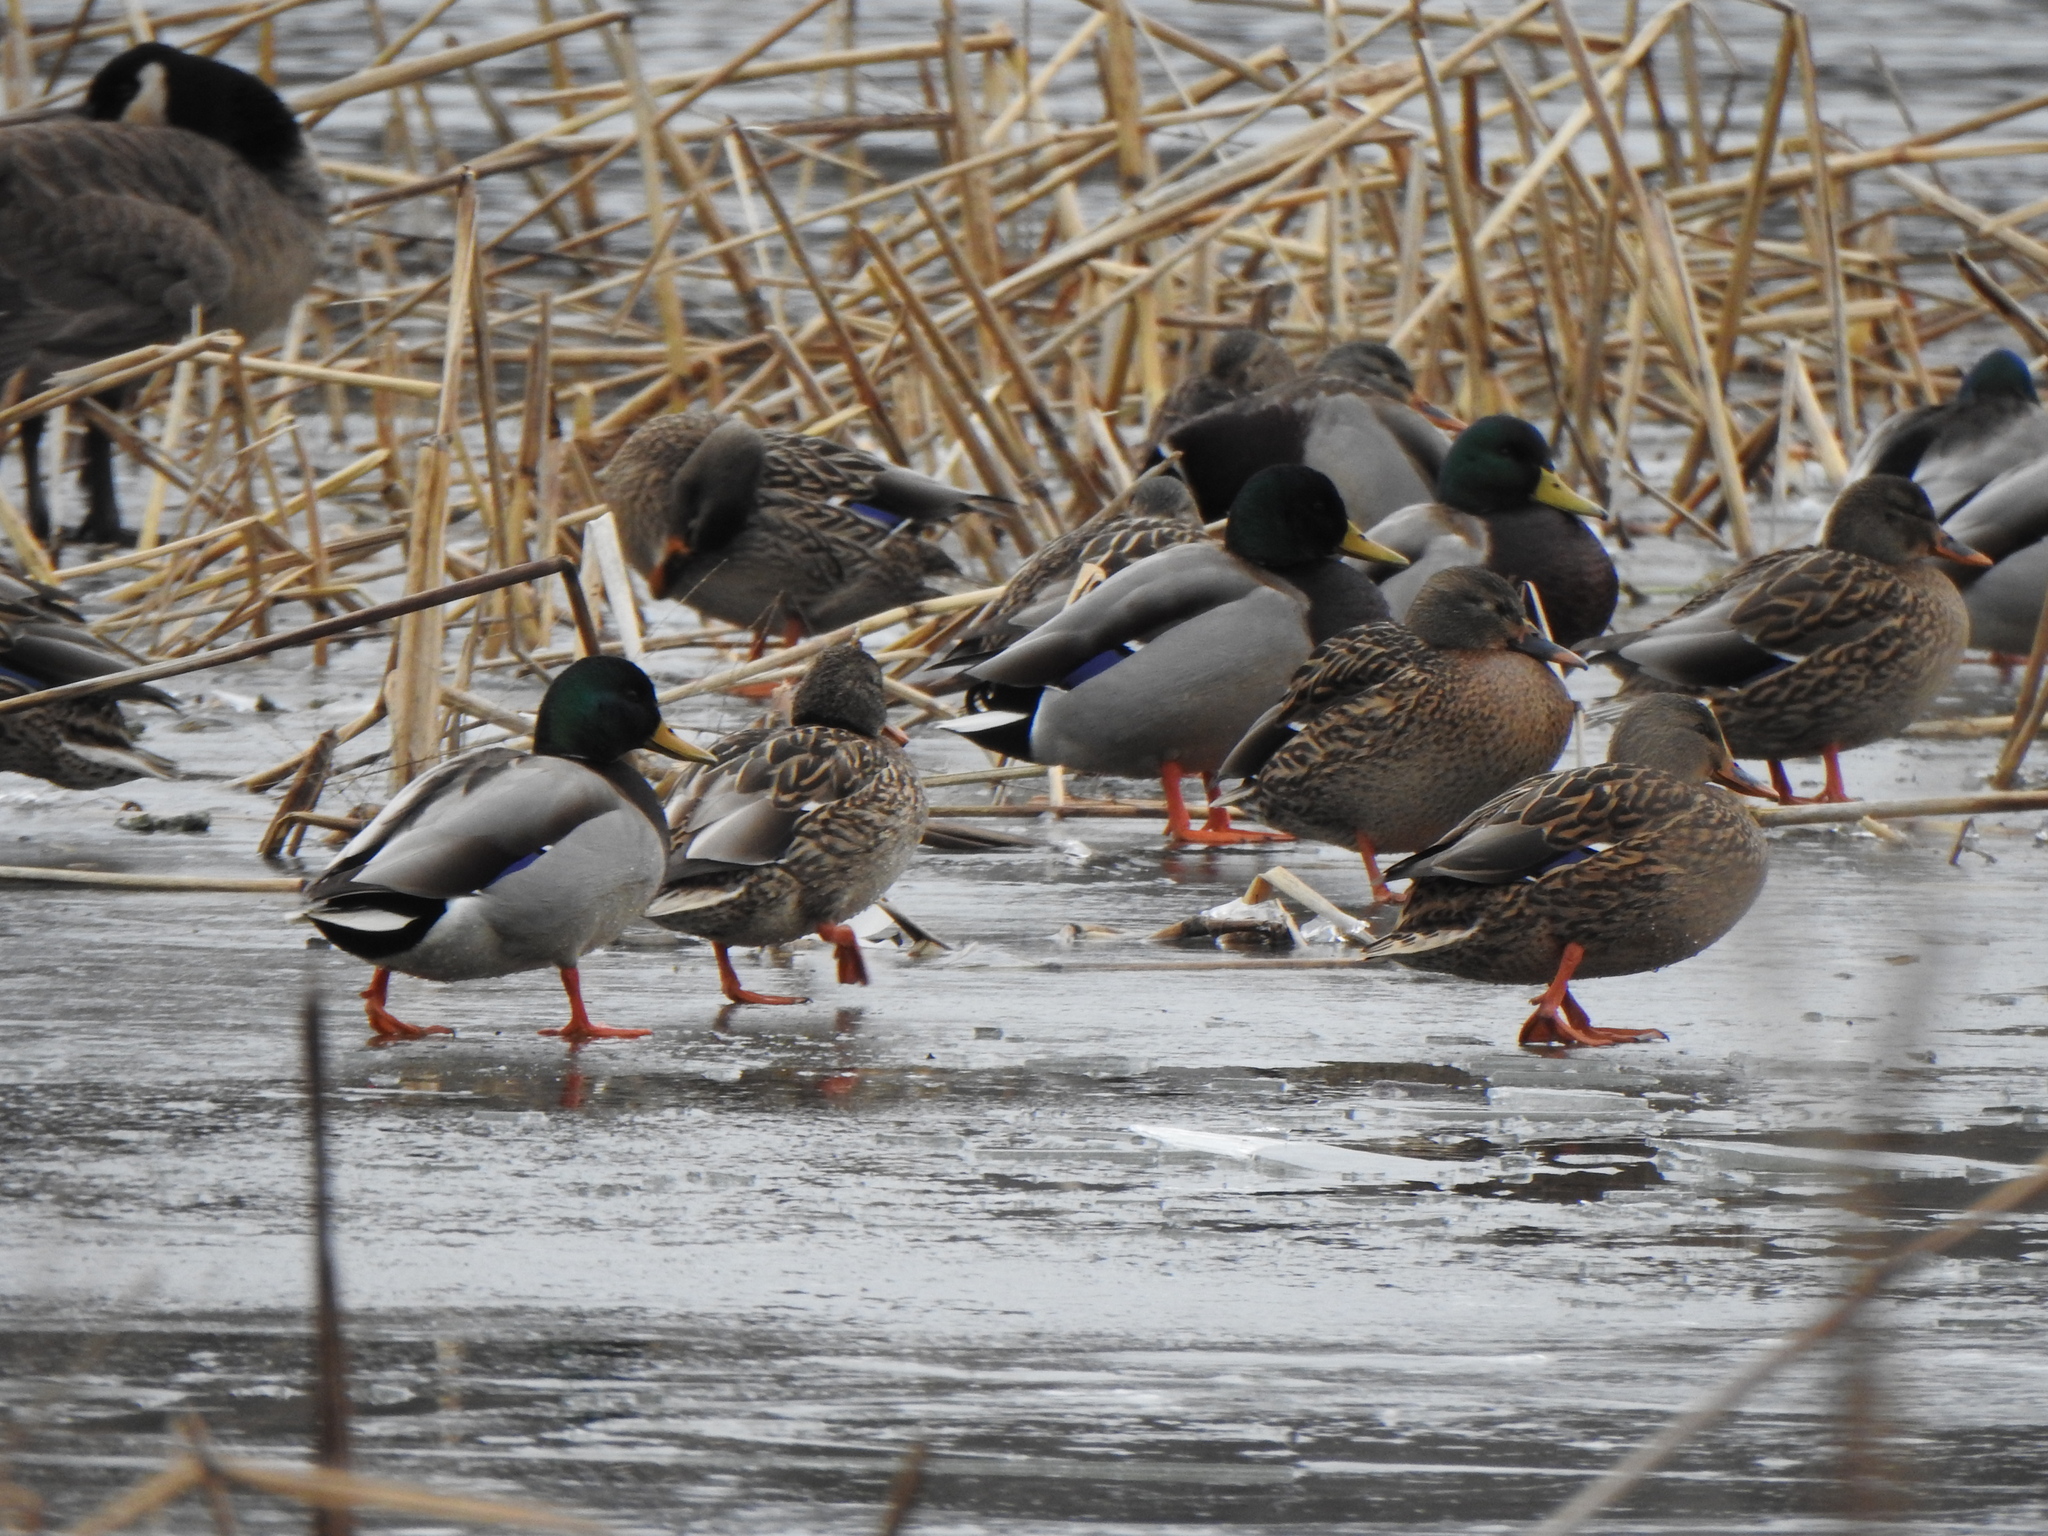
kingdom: Animalia
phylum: Chordata
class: Aves
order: Anseriformes
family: Anatidae
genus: Anas
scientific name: Anas platyrhynchos
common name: Mallard
